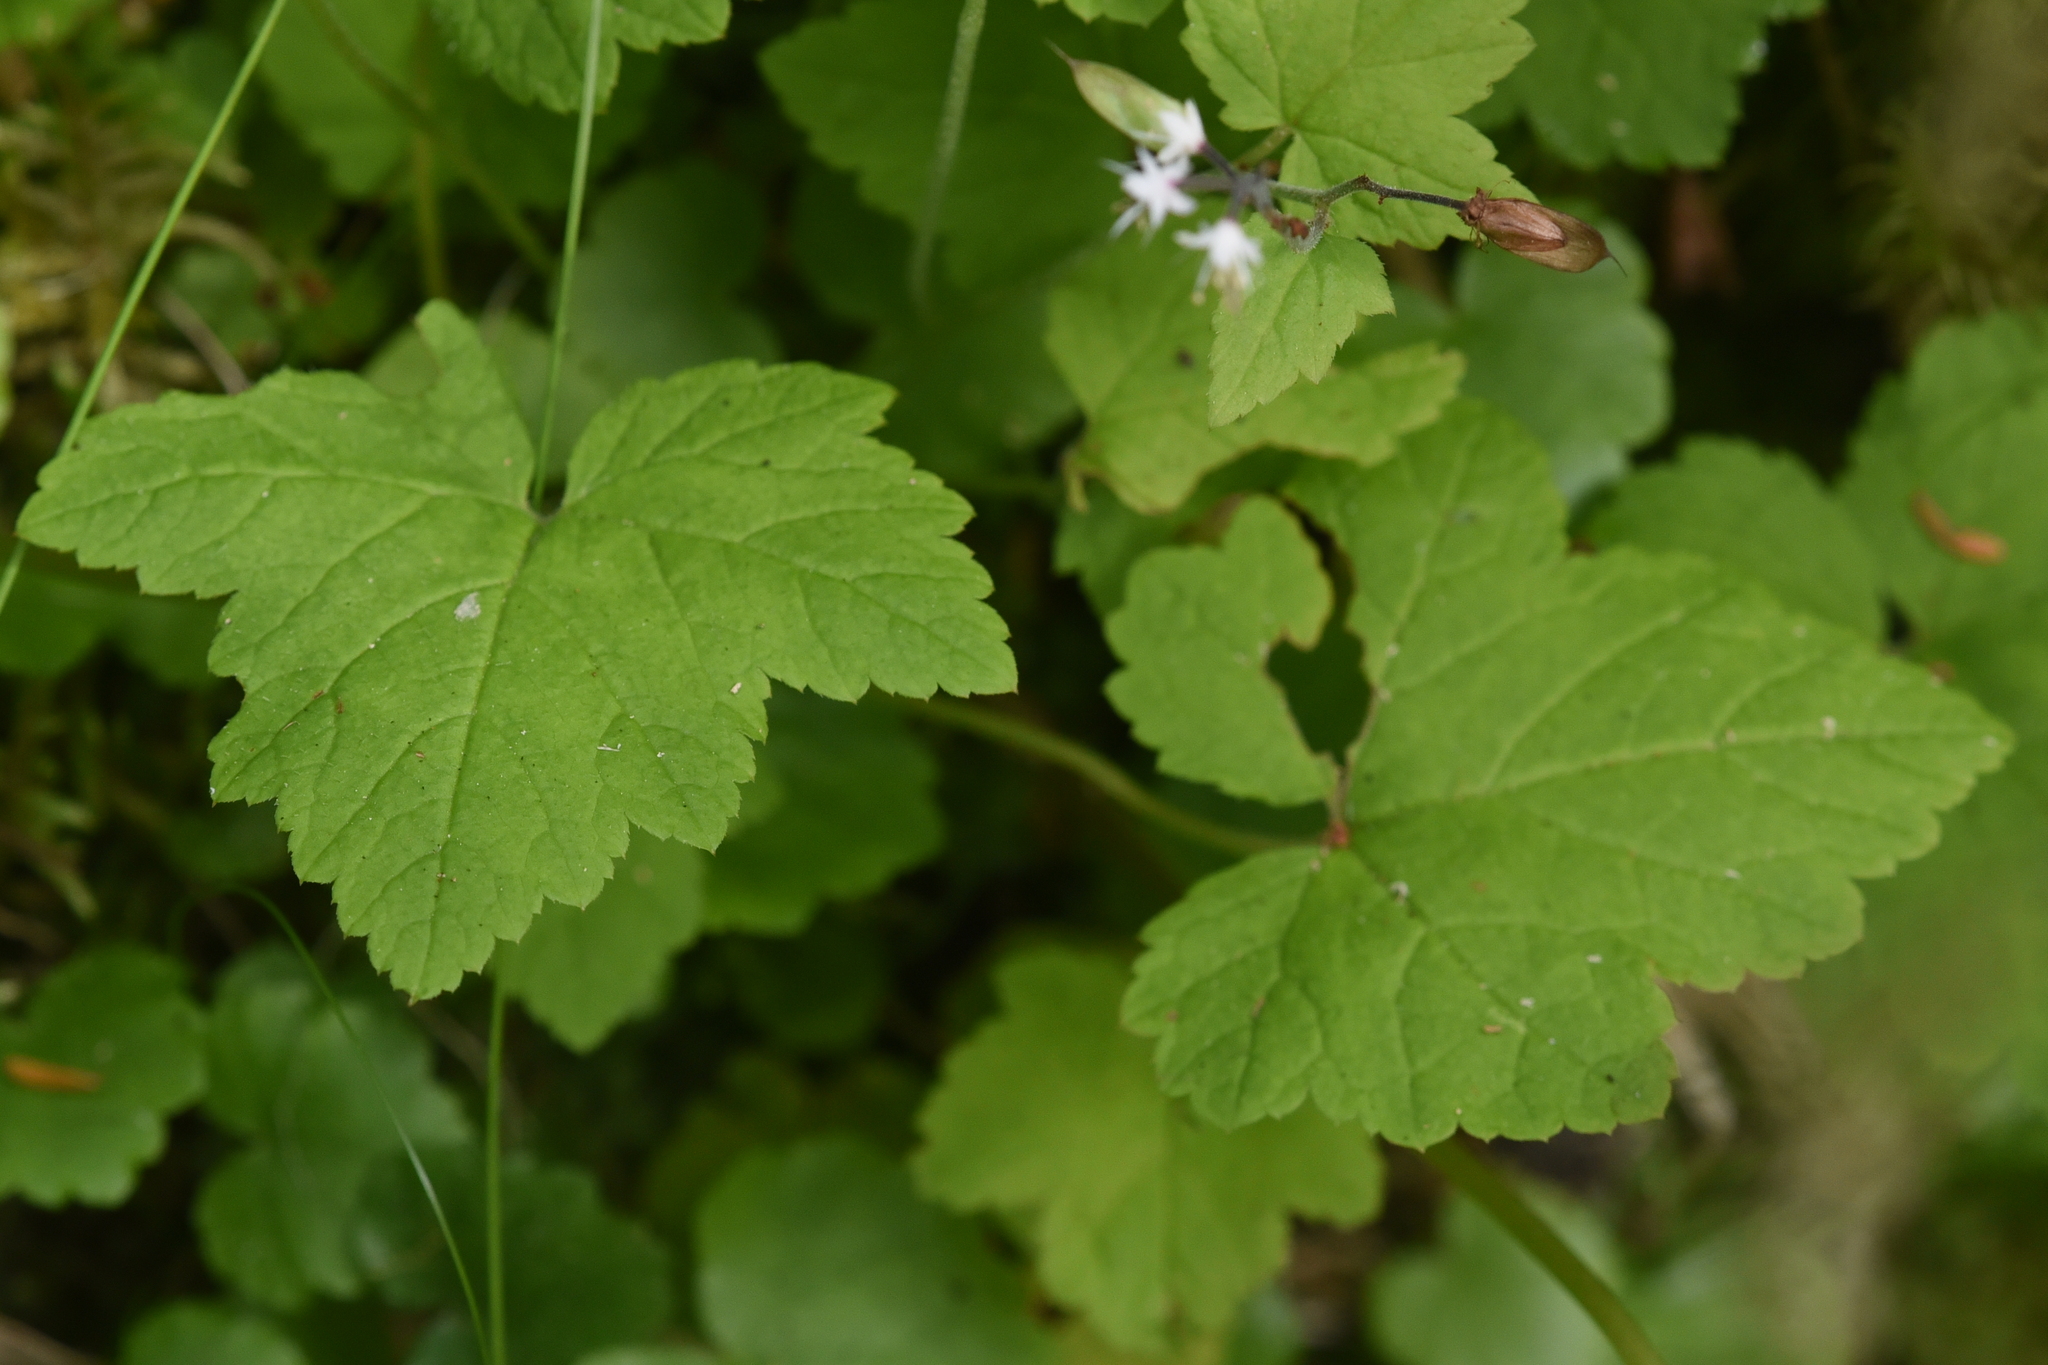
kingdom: Plantae
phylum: Tracheophyta
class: Magnoliopsida
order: Saxifragales
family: Saxifragaceae
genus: Tiarella
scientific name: Tiarella trifoliata
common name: Sugar-scoop
